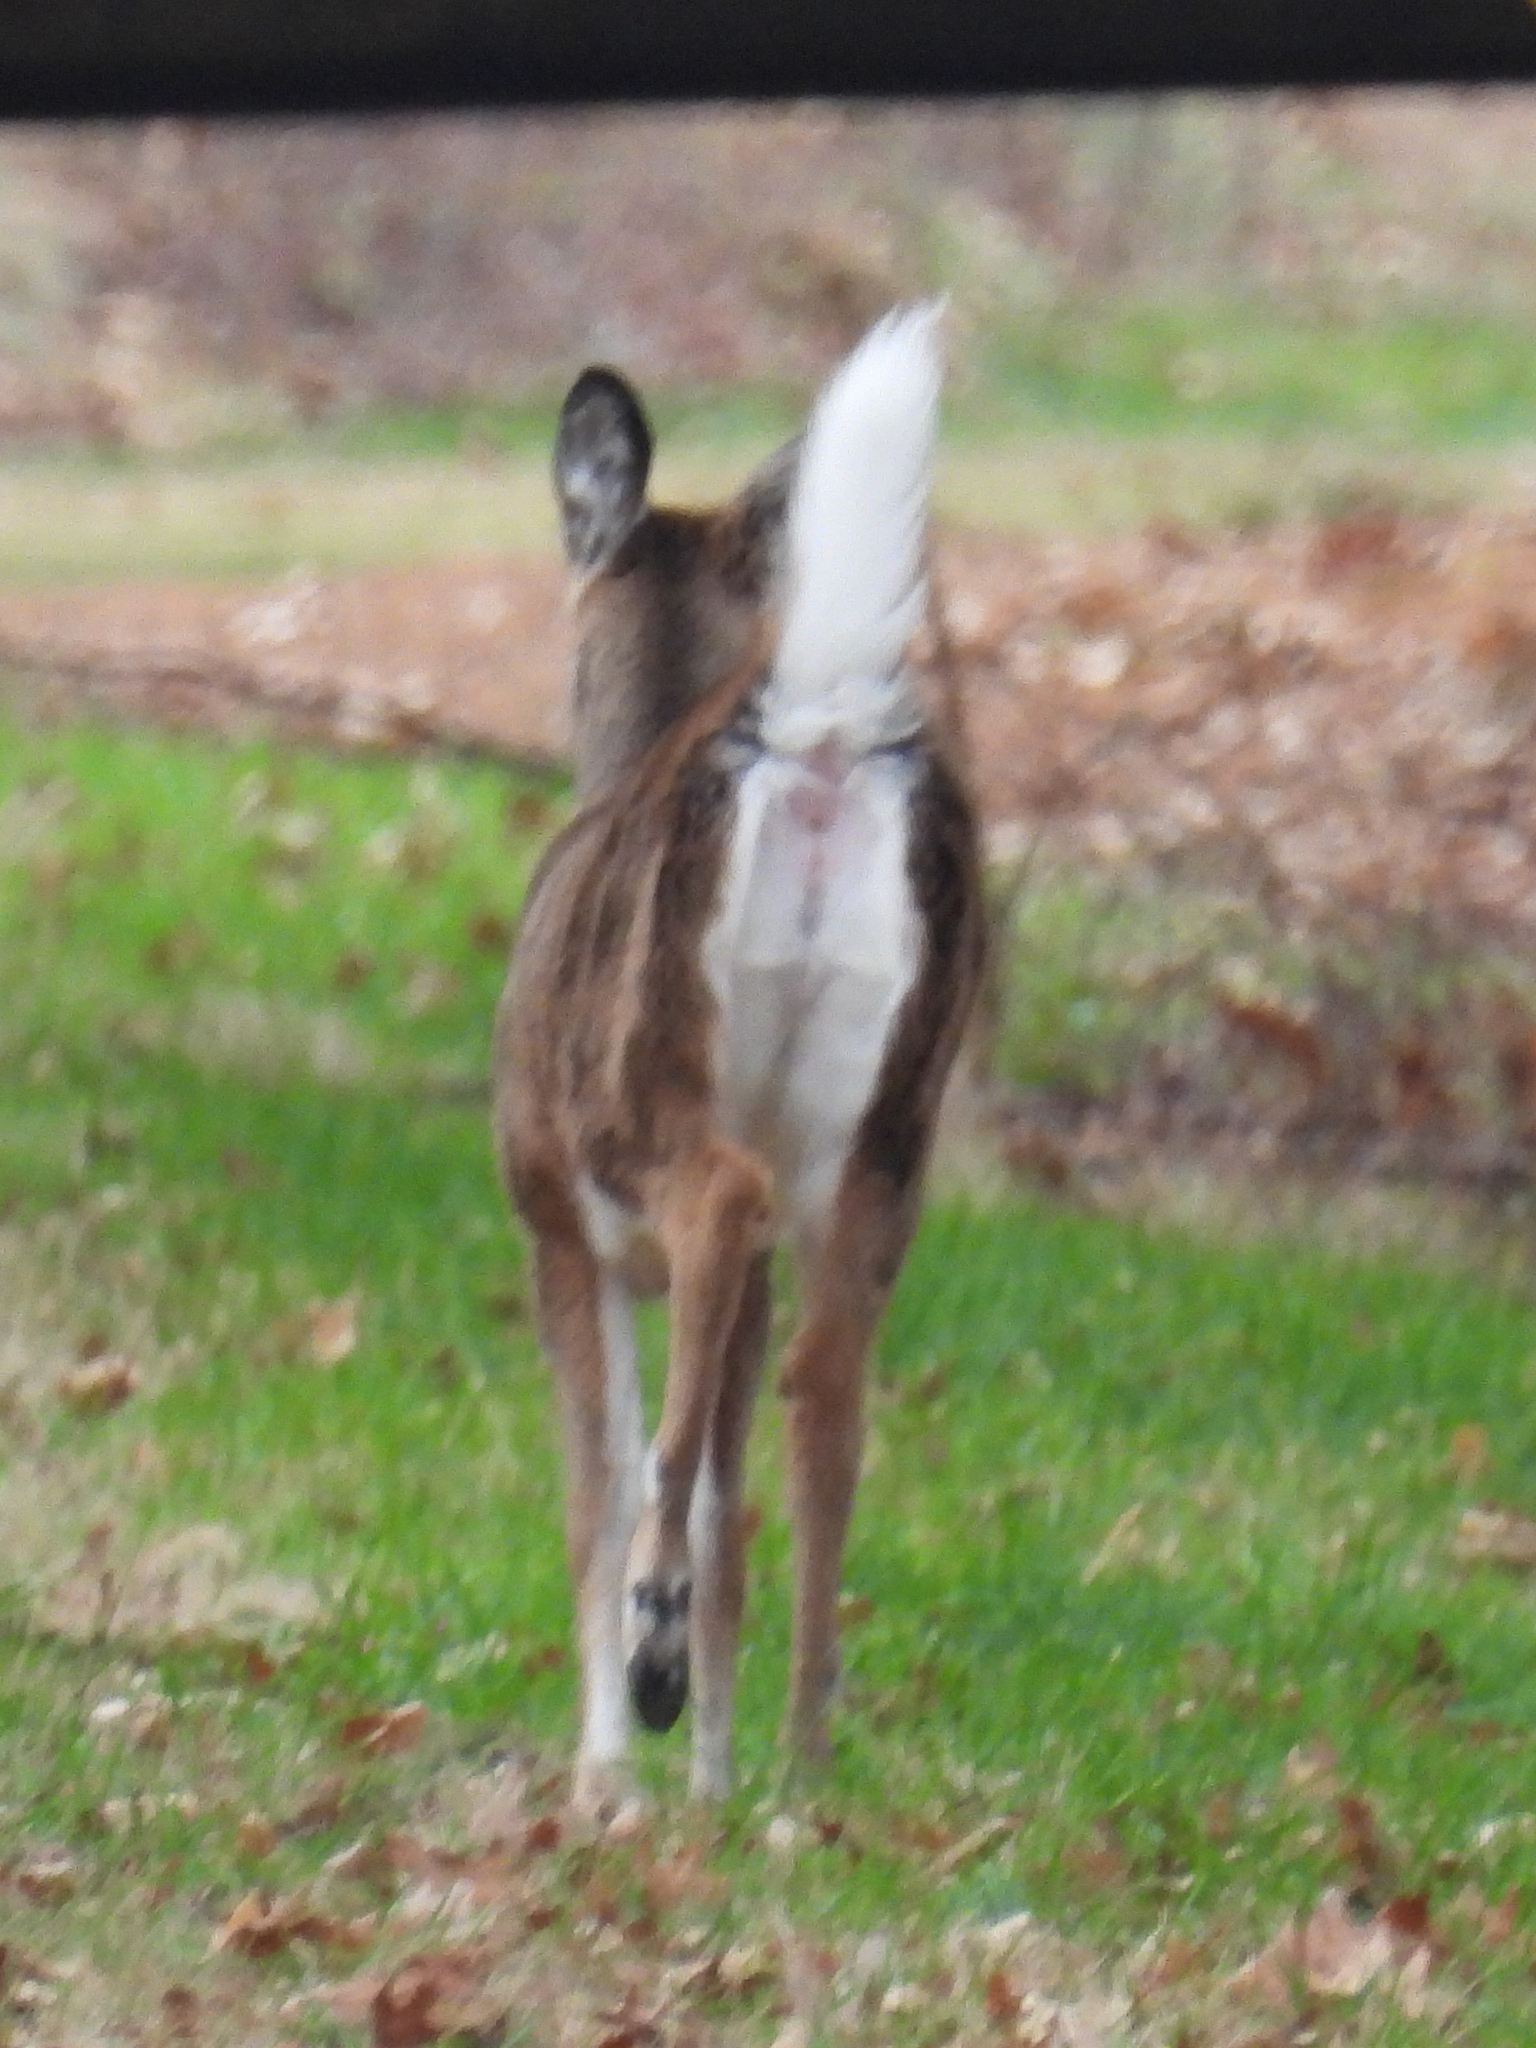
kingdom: Animalia
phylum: Chordata
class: Mammalia
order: Artiodactyla
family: Cervidae
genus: Odocoileus
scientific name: Odocoileus virginianus
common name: White-tailed deer
